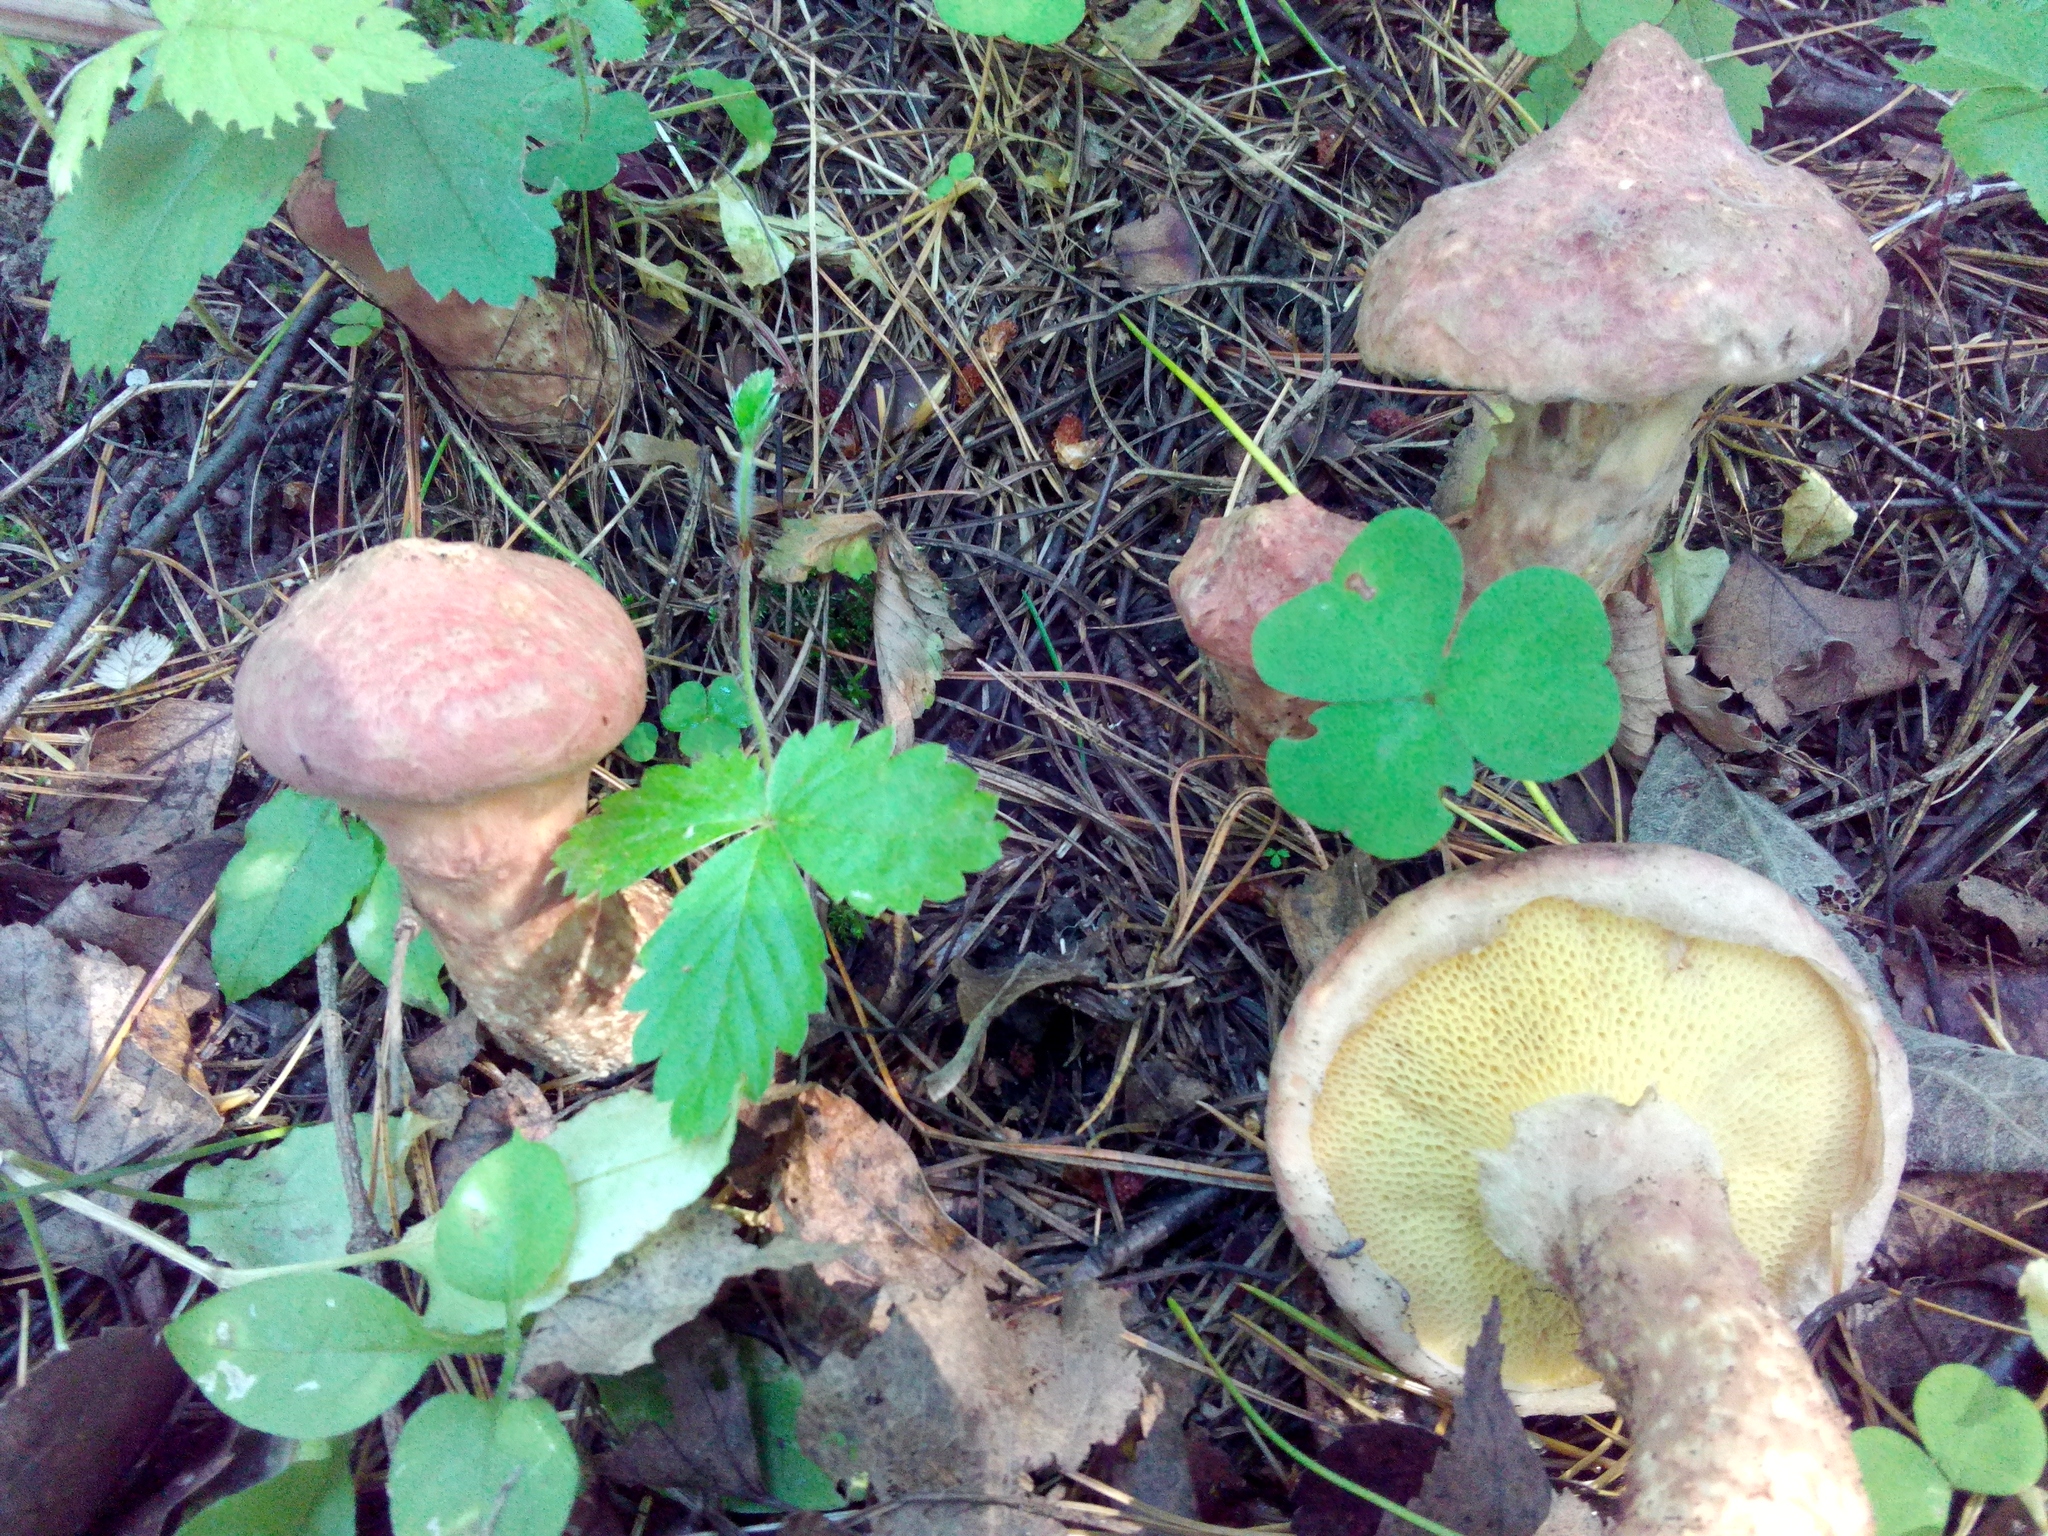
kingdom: Fungi
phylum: Basidiomycota
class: Agaricomycetes
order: Boletales
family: Suillaceae
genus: Suillus
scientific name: Suillus spraguei
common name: Painted suillus
